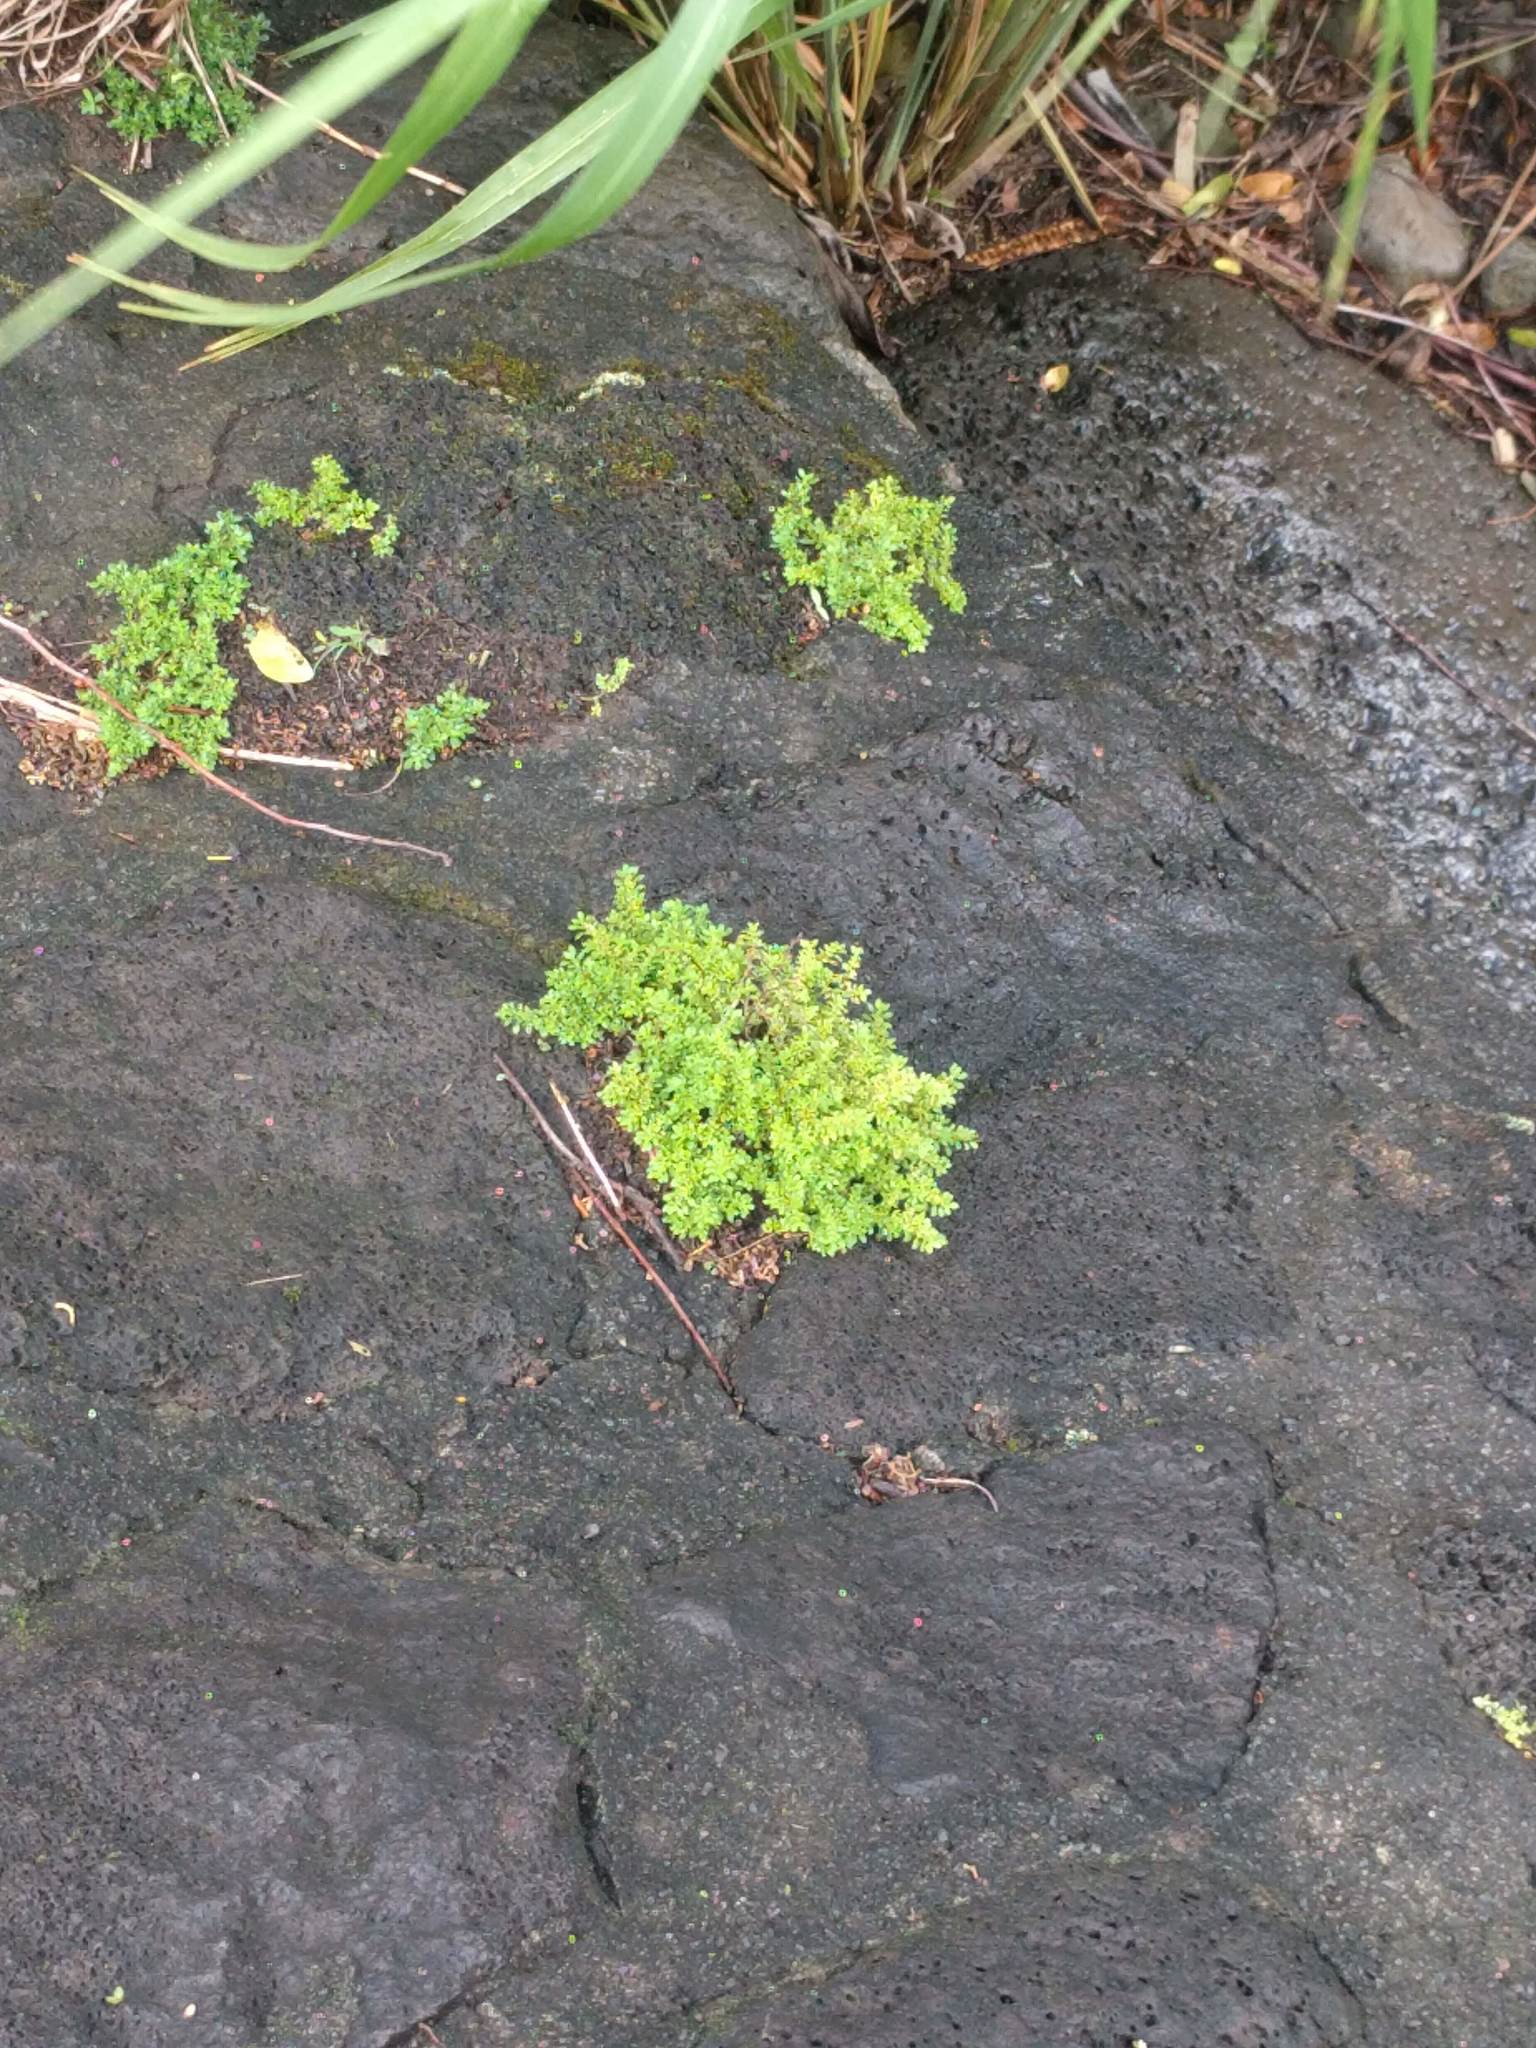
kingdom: Plantae
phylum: Tracheophyta
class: Magnoliopsida
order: Rosales
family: Urticaceae
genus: Pilea
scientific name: Pilea microphylla
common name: Artillery-plant
